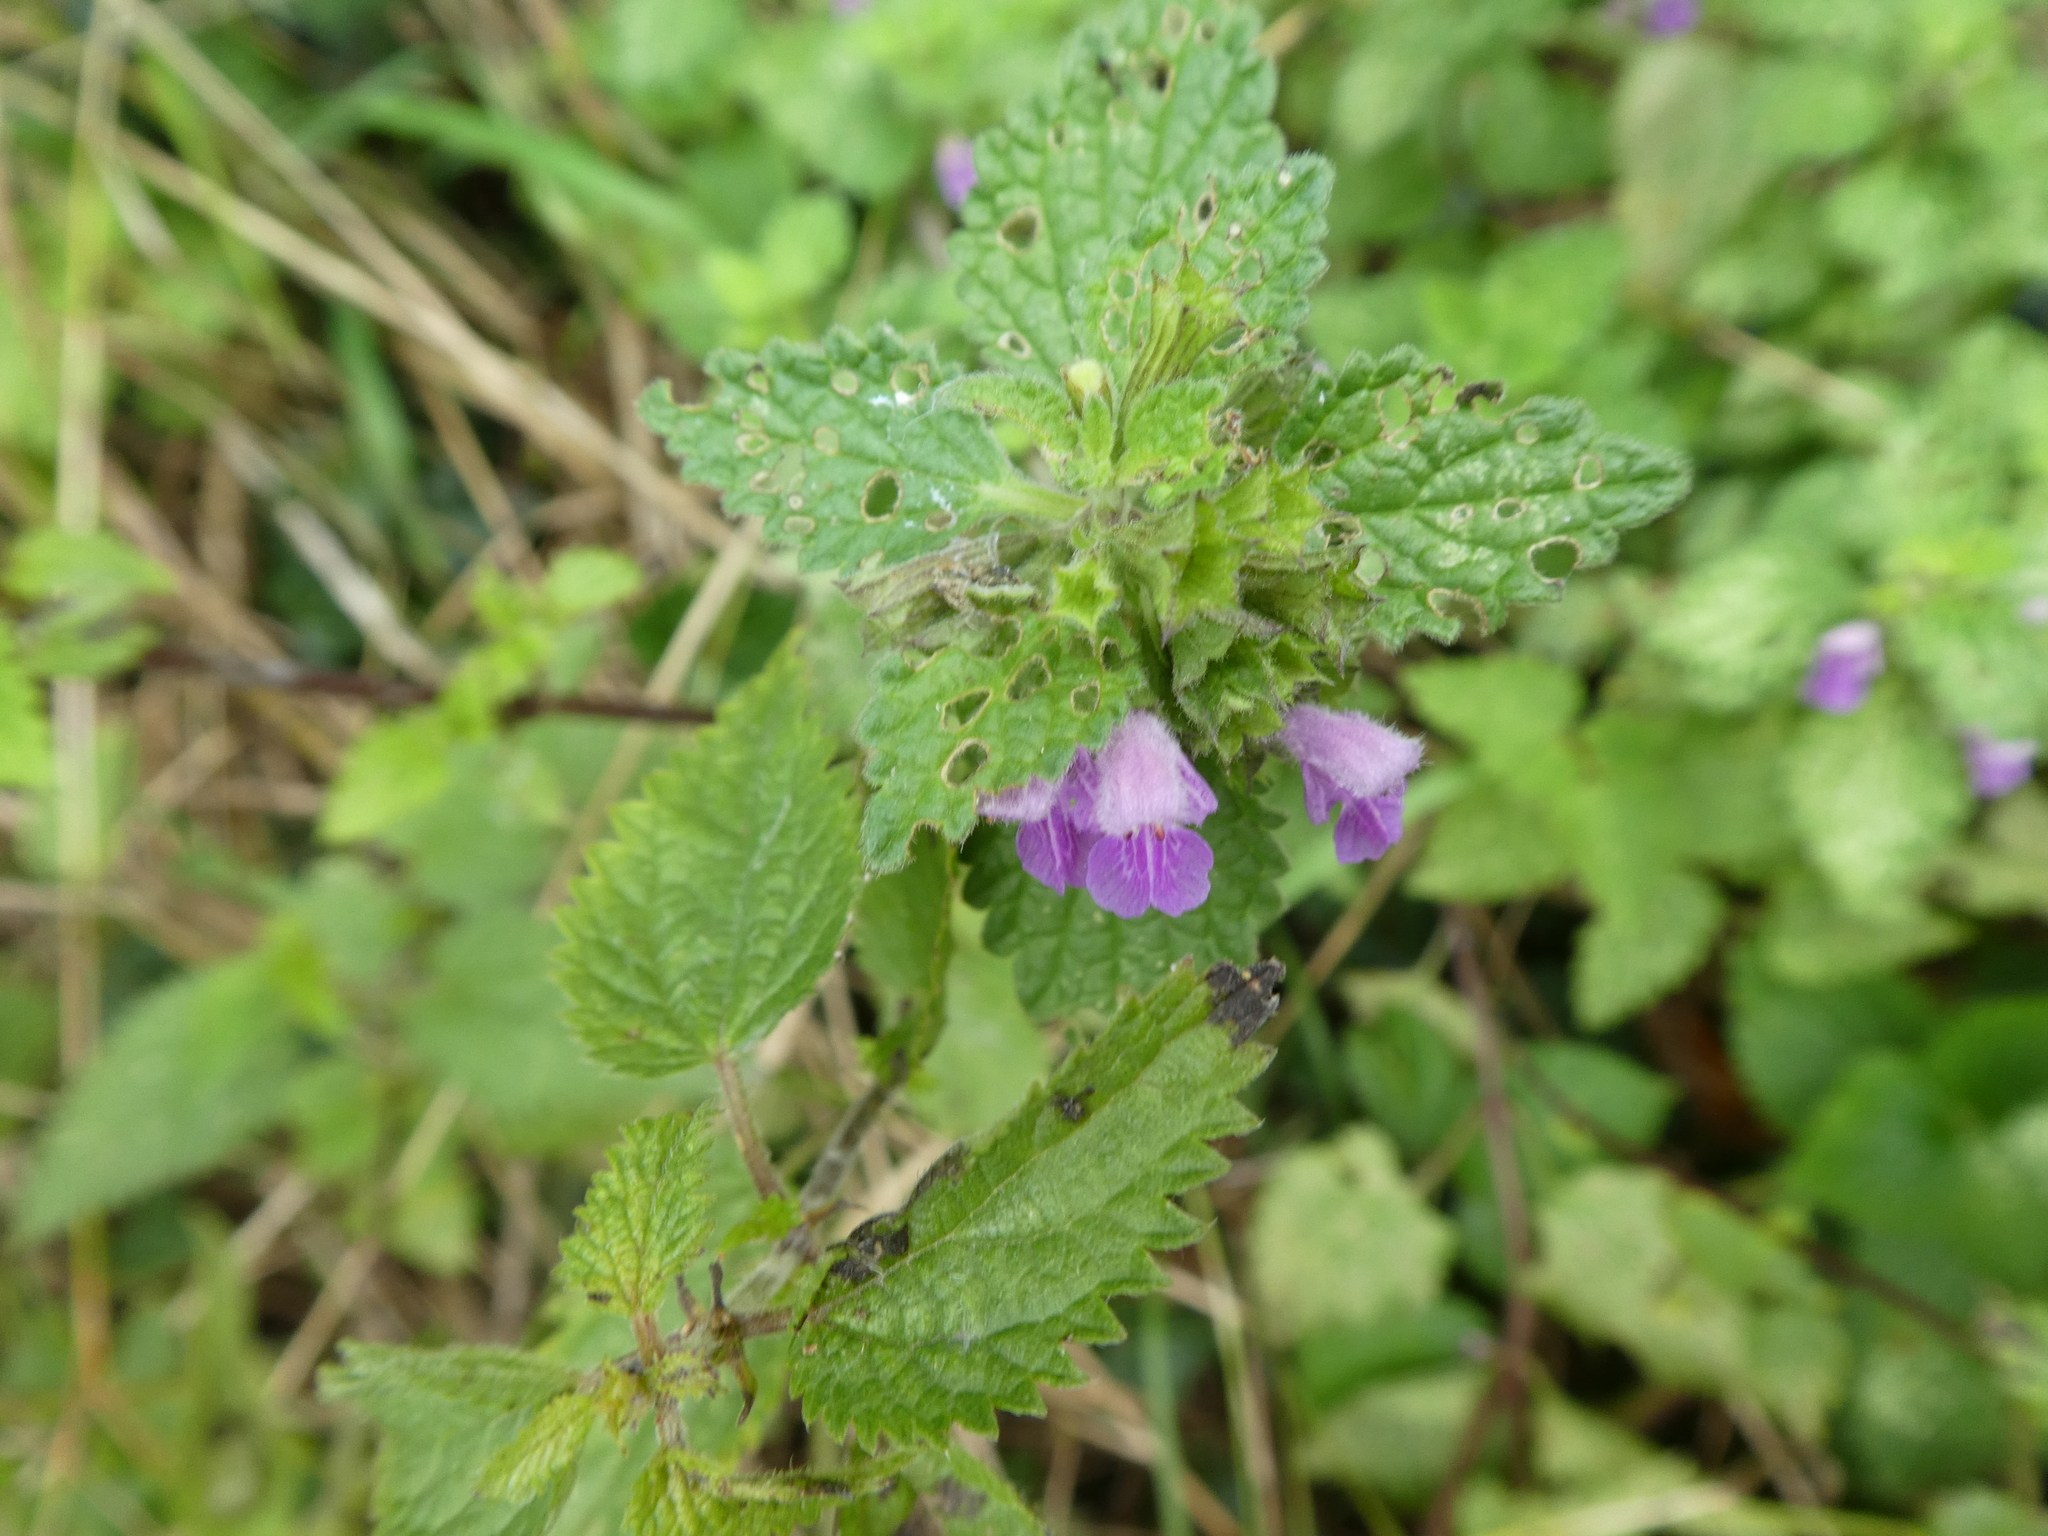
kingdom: Plantae
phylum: Tracheophyta
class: Magnoliopsida
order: Lamiales
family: Lamiaceae
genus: Ballota
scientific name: Ballota nigra
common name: Black horehound
